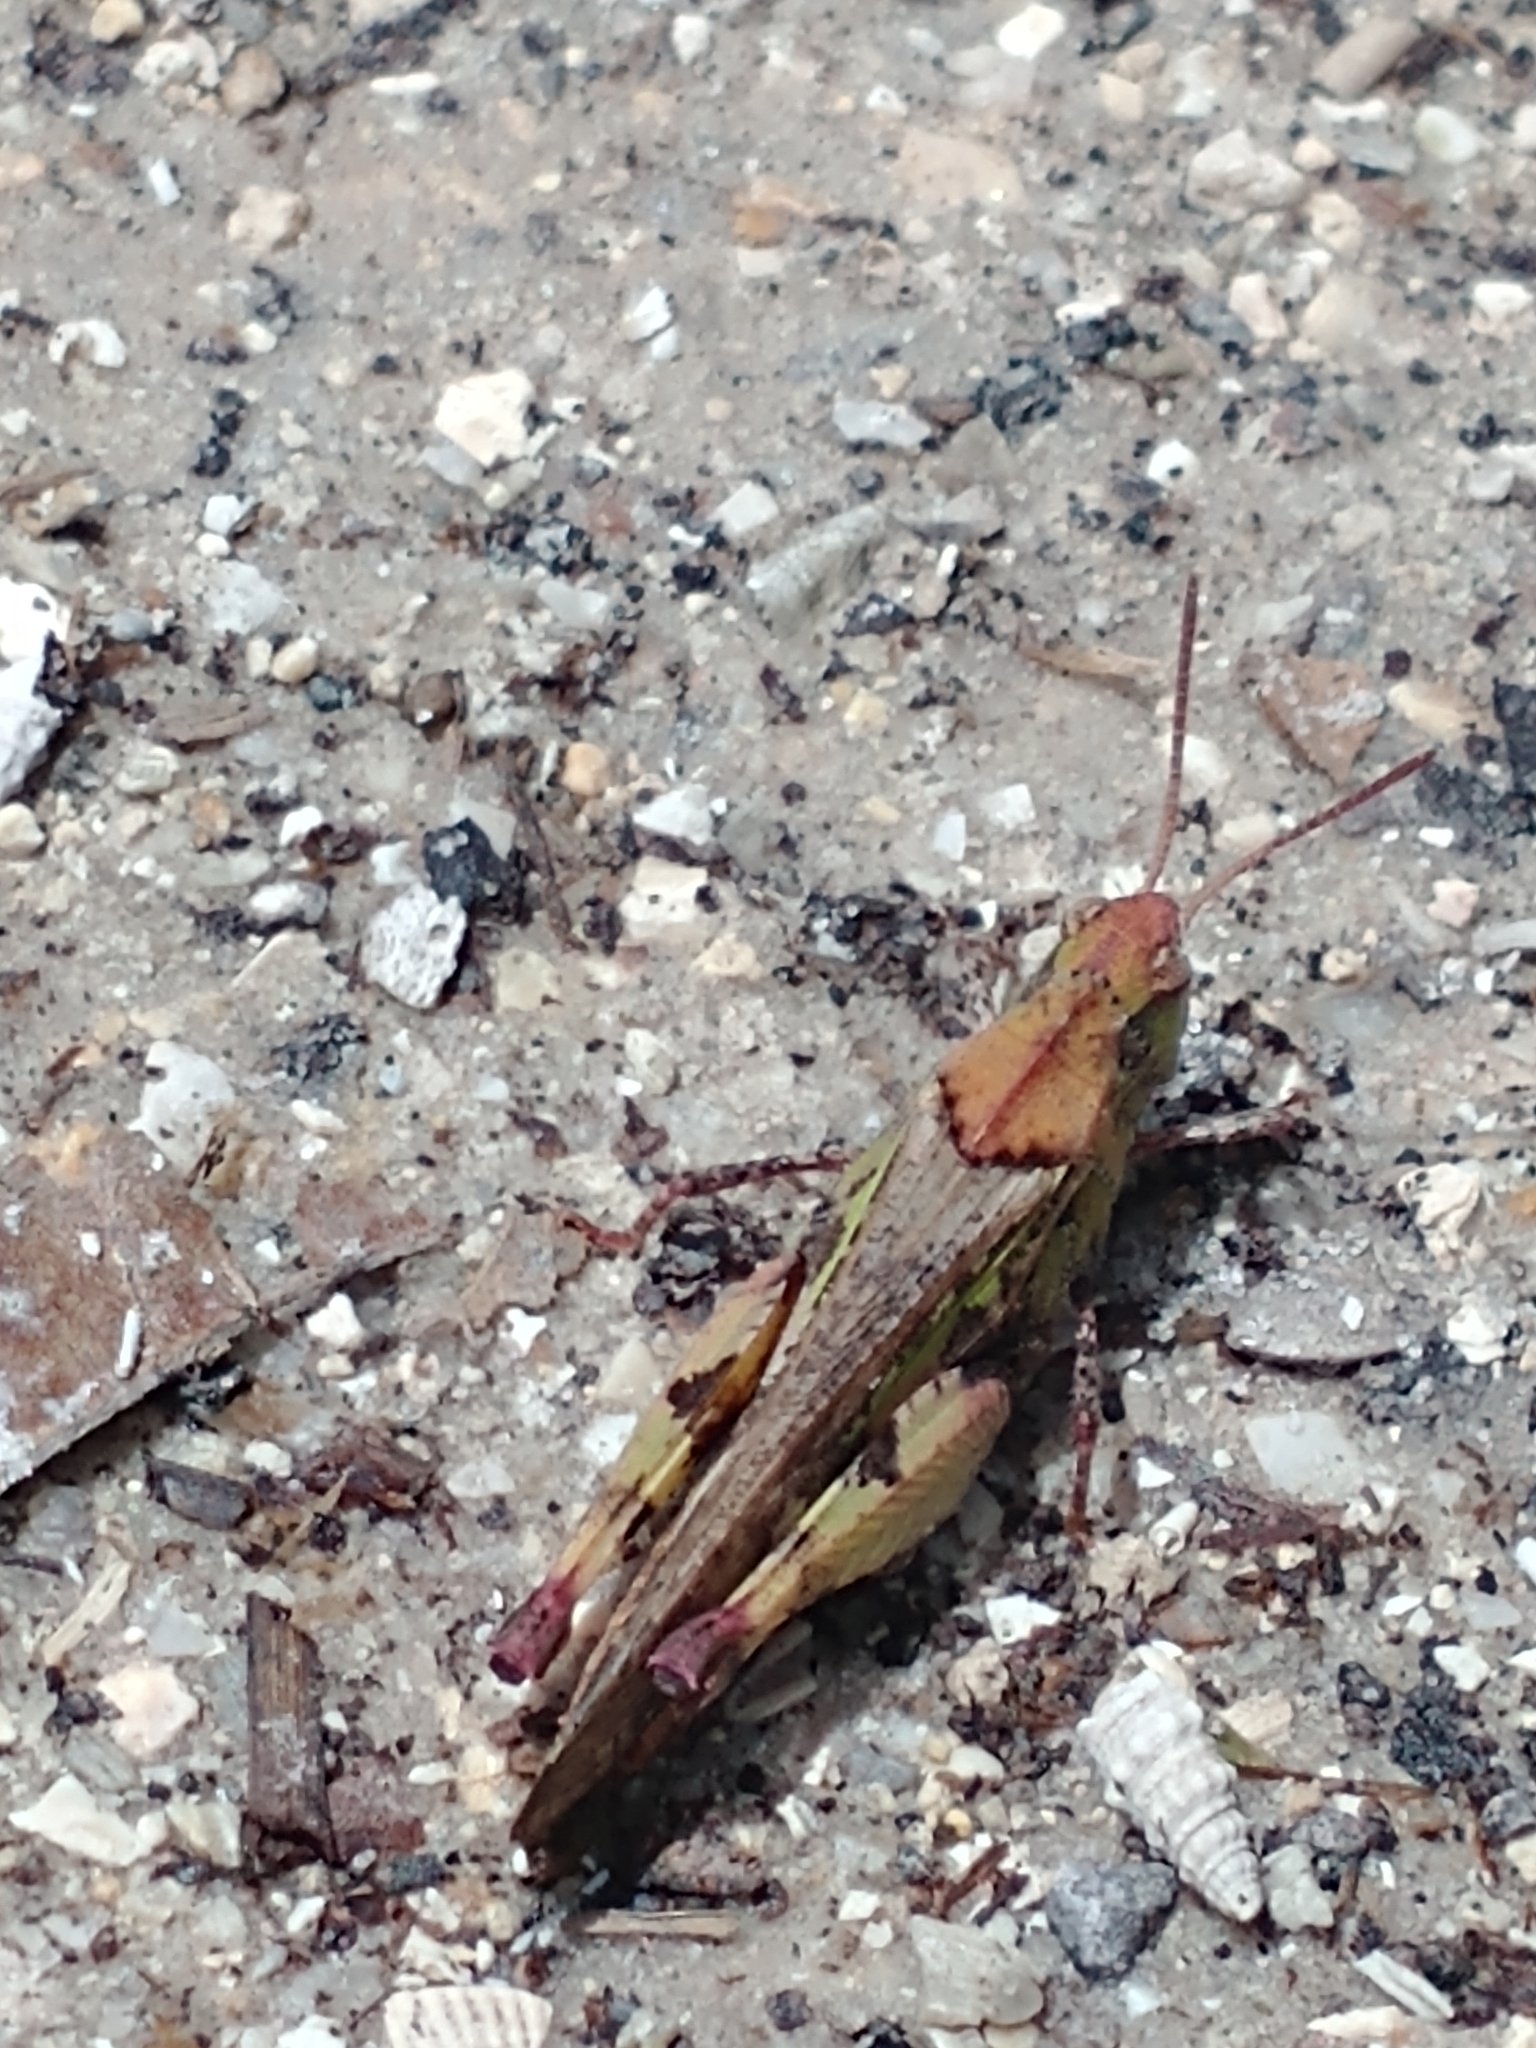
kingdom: Animalia
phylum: Arthropoda
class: Insecta
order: Orthoptera
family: Acrididae
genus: Chortophaga
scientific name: Chortophaga australior
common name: Southern green-striped grasshopper
